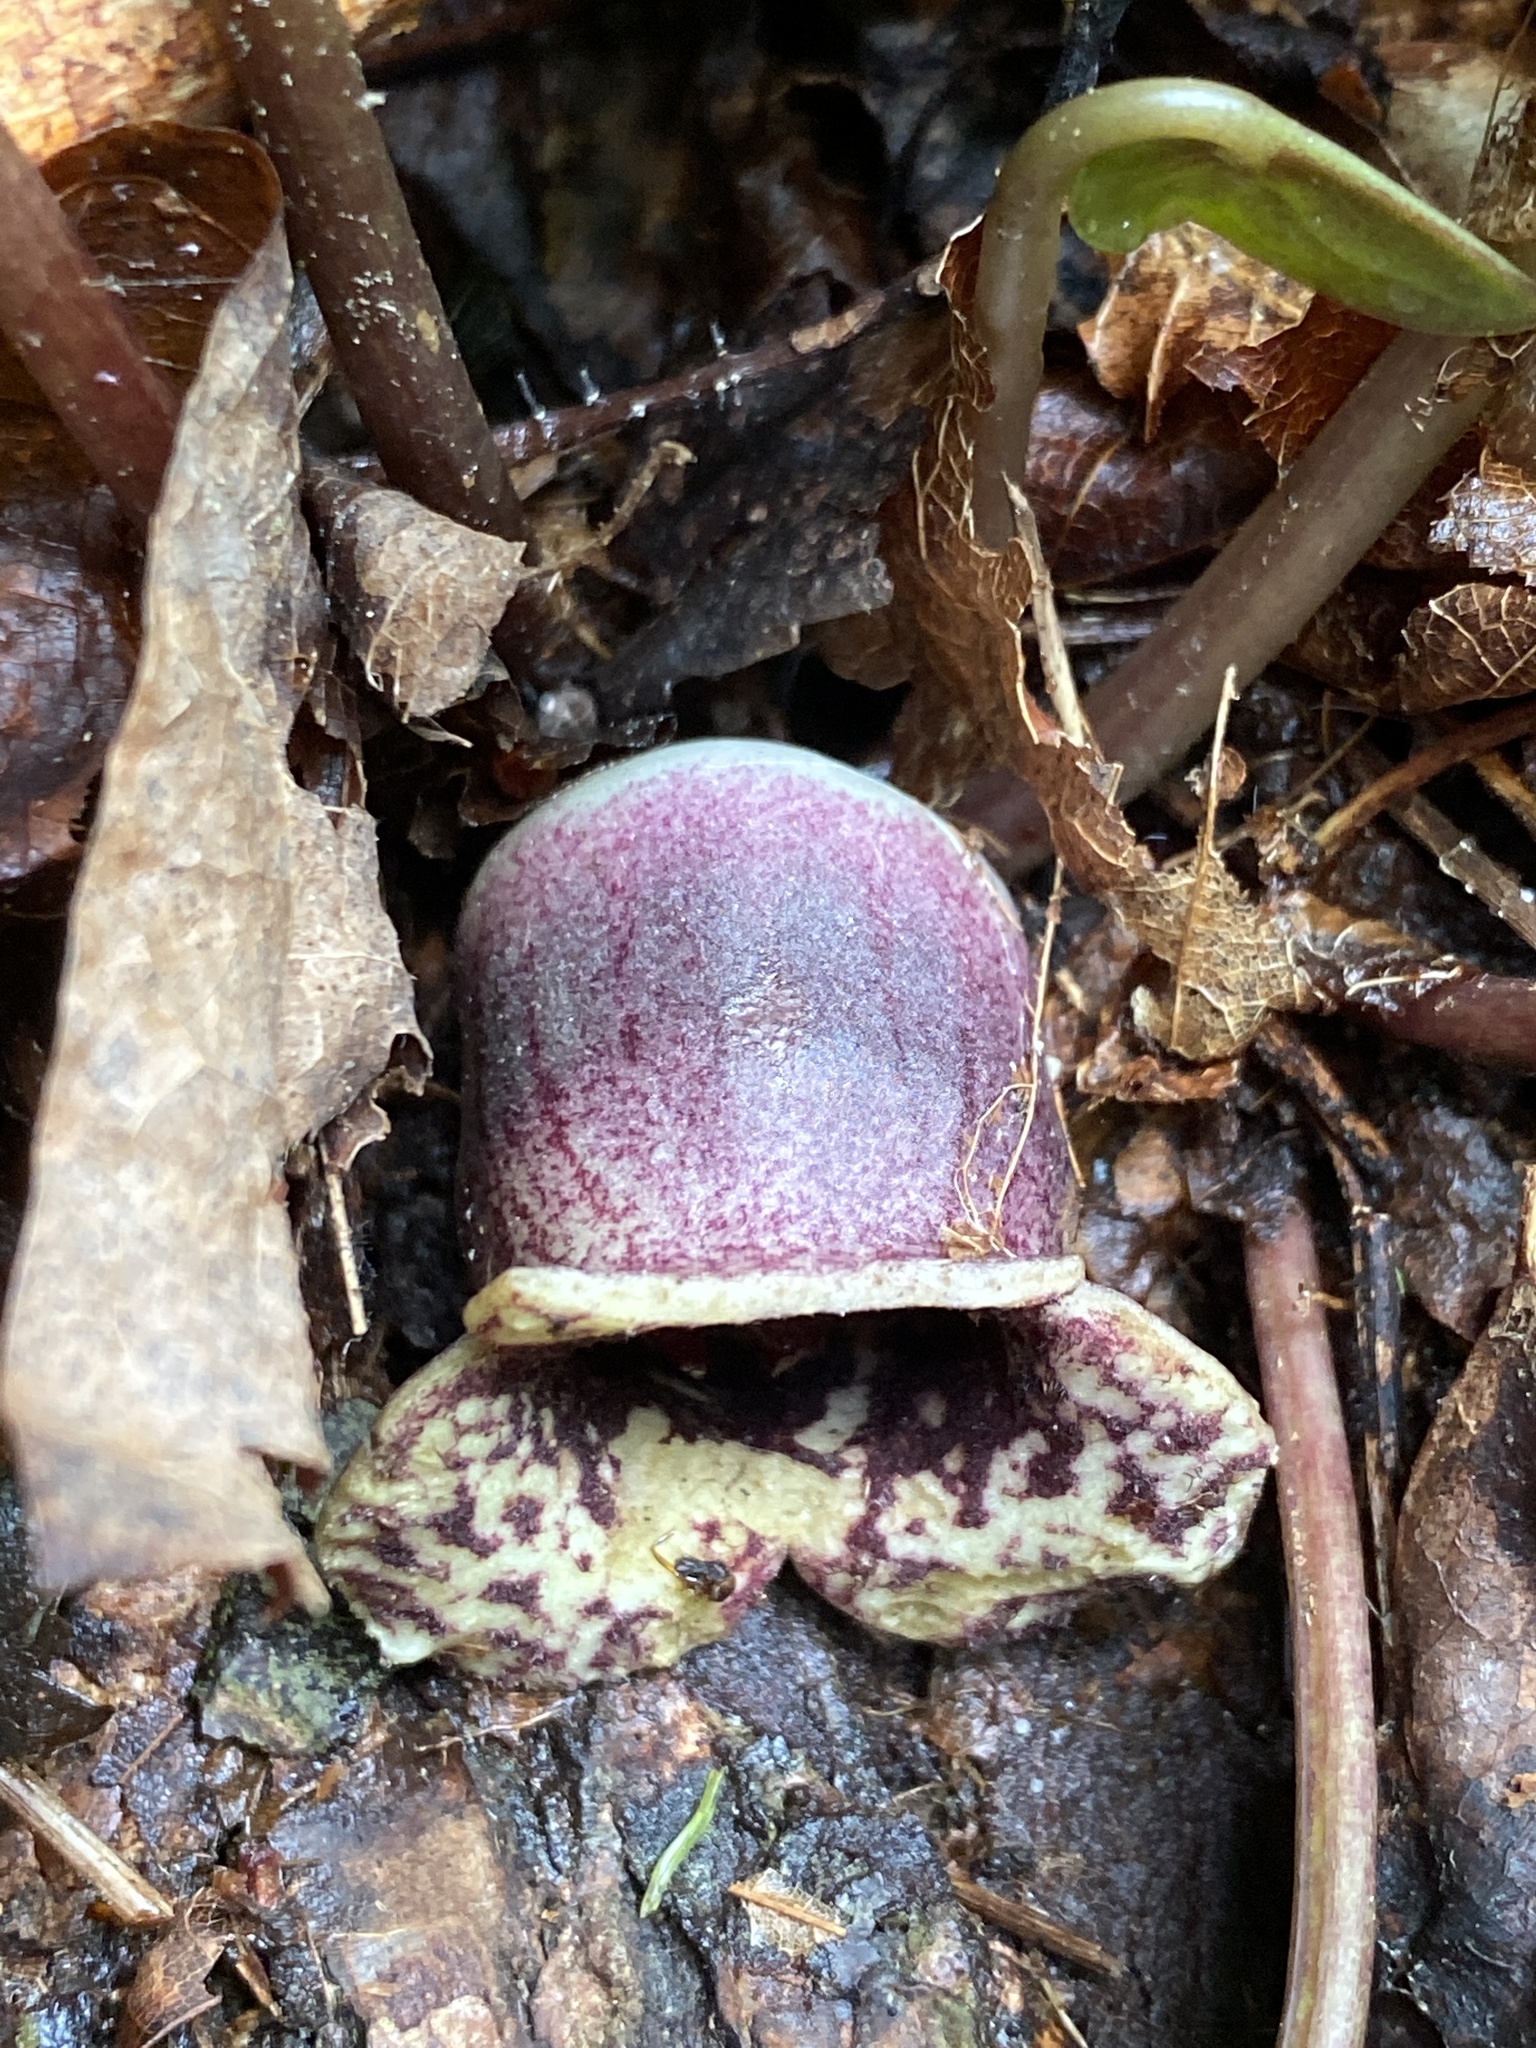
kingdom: Plantae
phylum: Tracheophyta
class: Magnoliopsida
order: Piperales
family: Aristolochiaceae
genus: Hexastylis
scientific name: Hexastylis heterophylla
